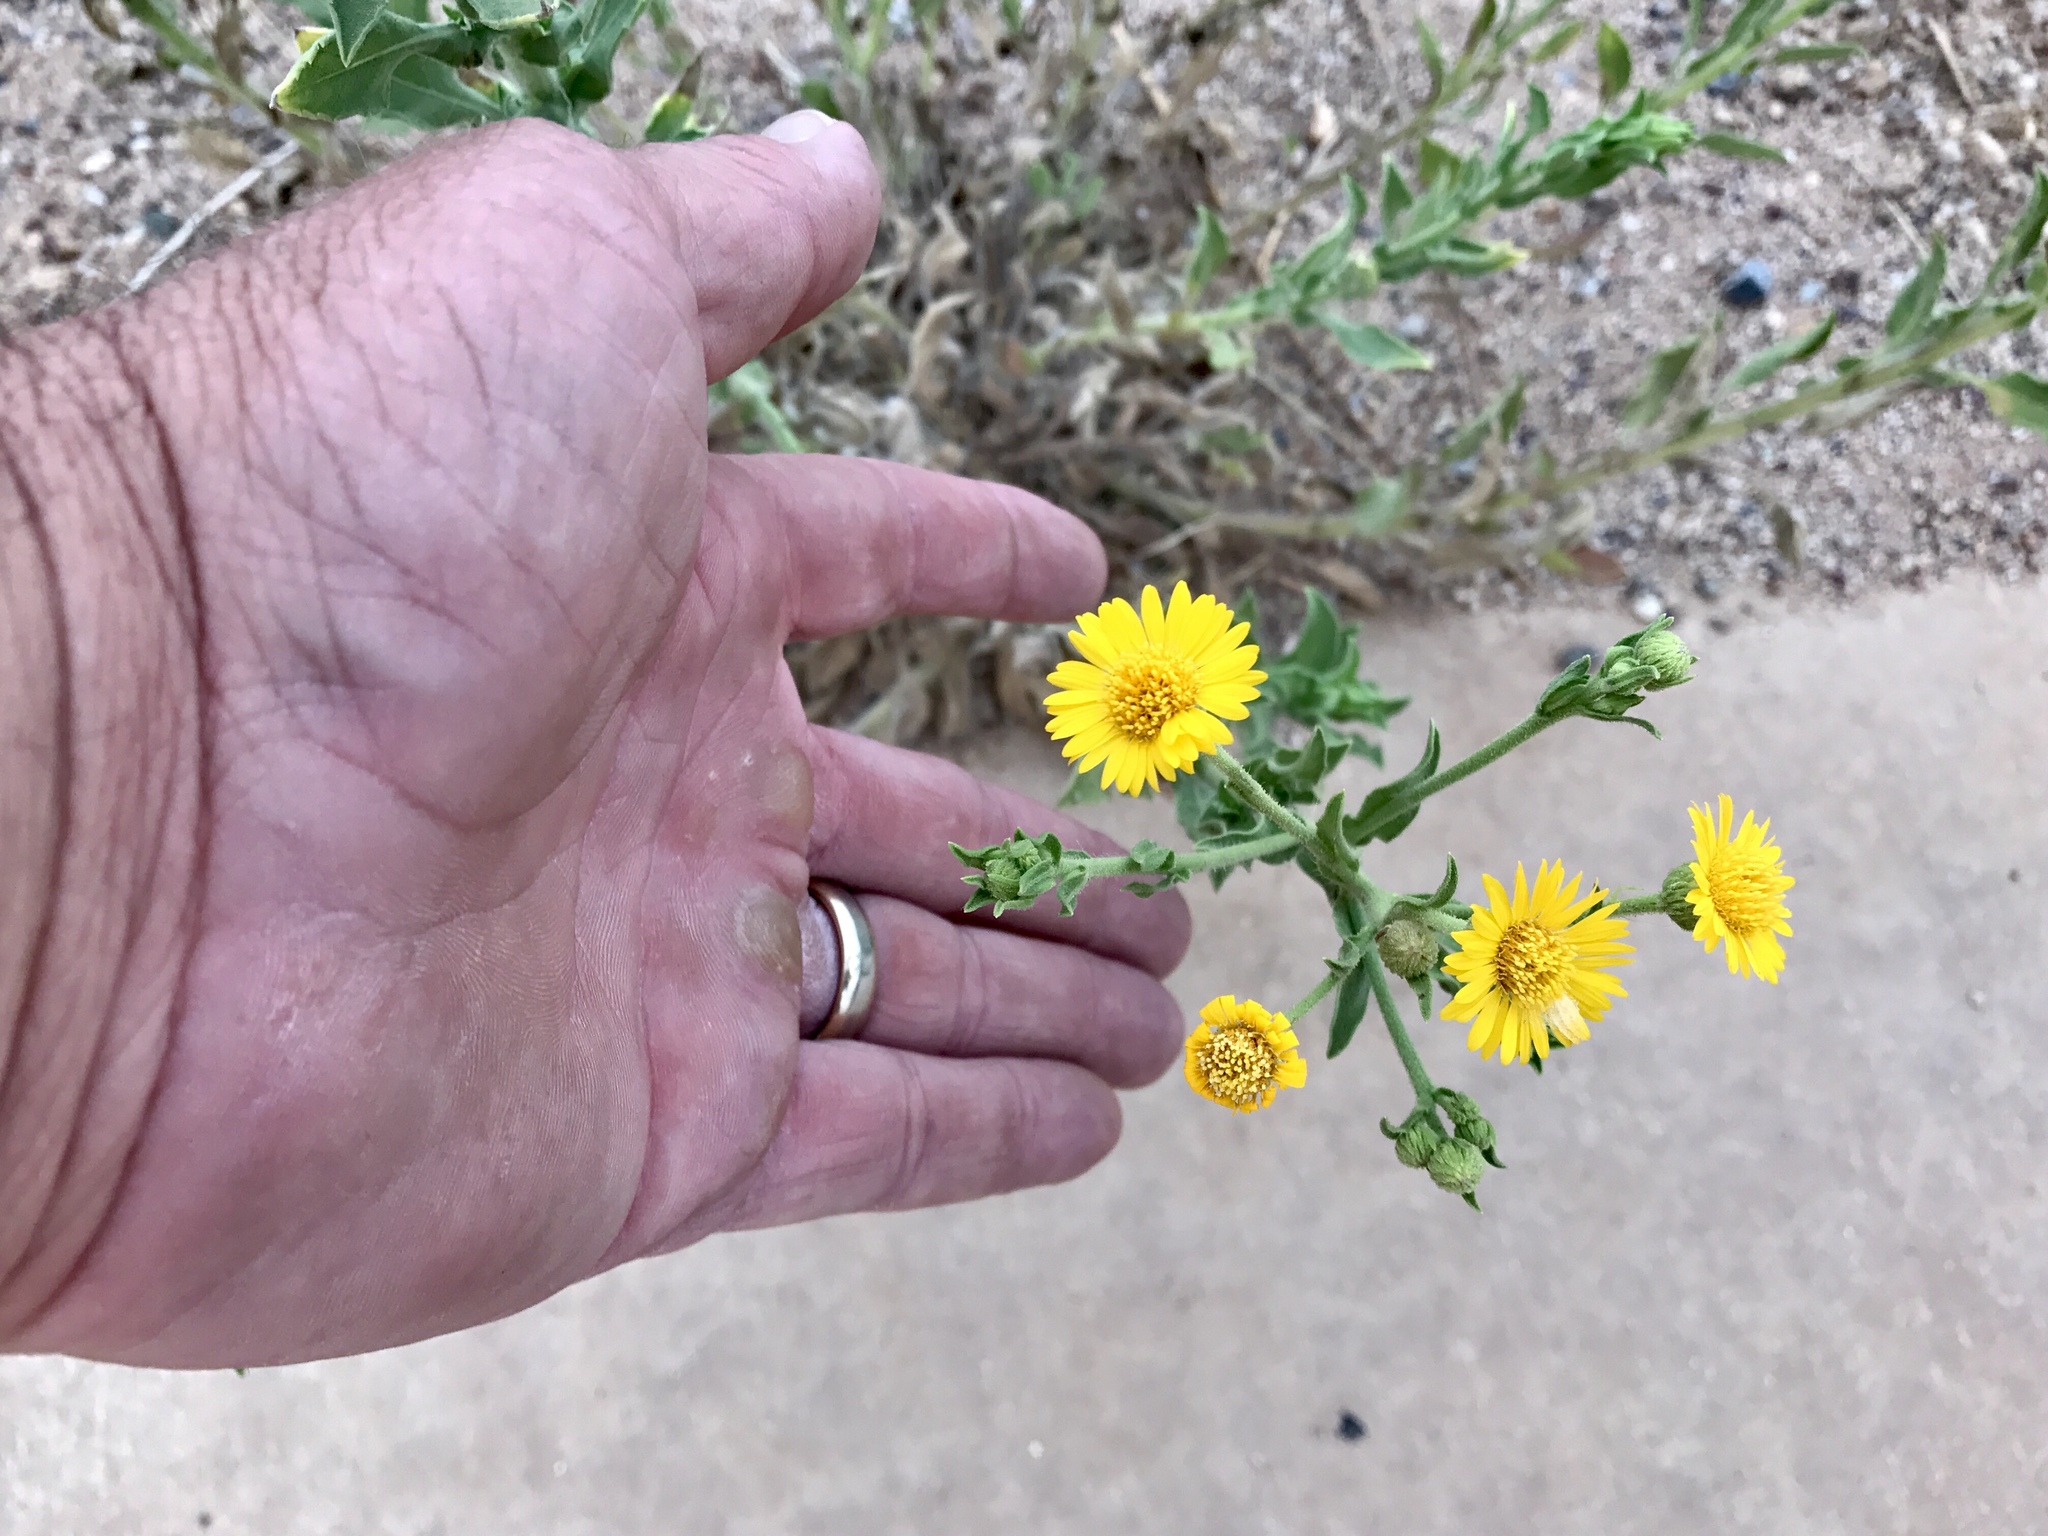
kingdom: Plantae
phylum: Tracheophyta
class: Magnoliopsida
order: Asterales
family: Asteraceae
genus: Heterotheca
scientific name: Heterotheca subaxillaris
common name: Camphorweed
